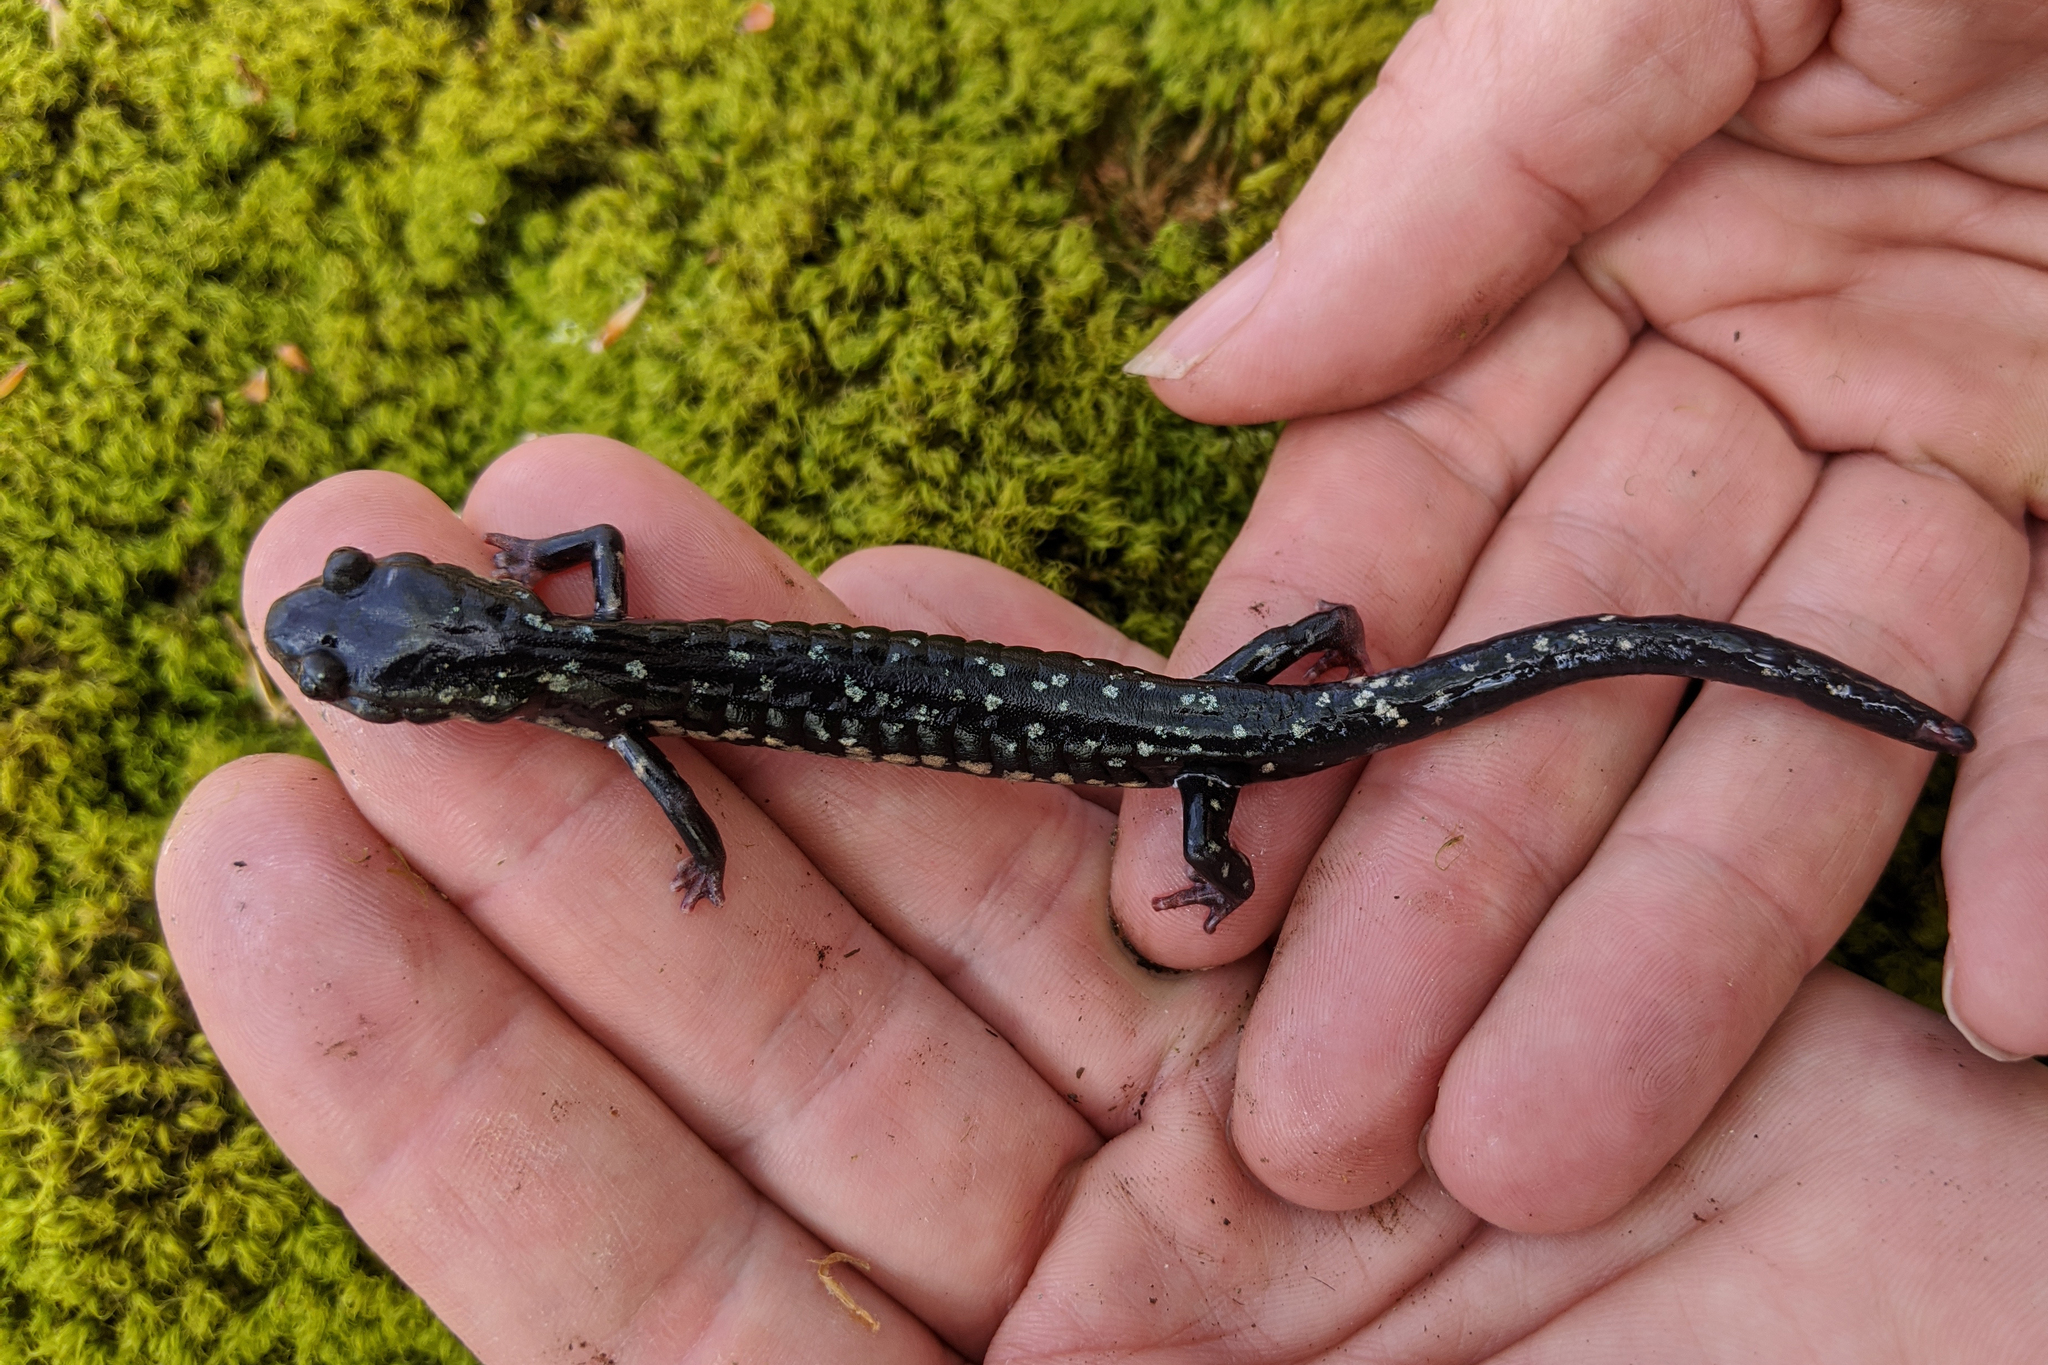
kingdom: Animalia
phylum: Chordata
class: Amphibia
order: Caudata
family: Plethodontidae
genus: Plethodon
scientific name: Plethodon glutinosus
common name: Northern slimy salamander
